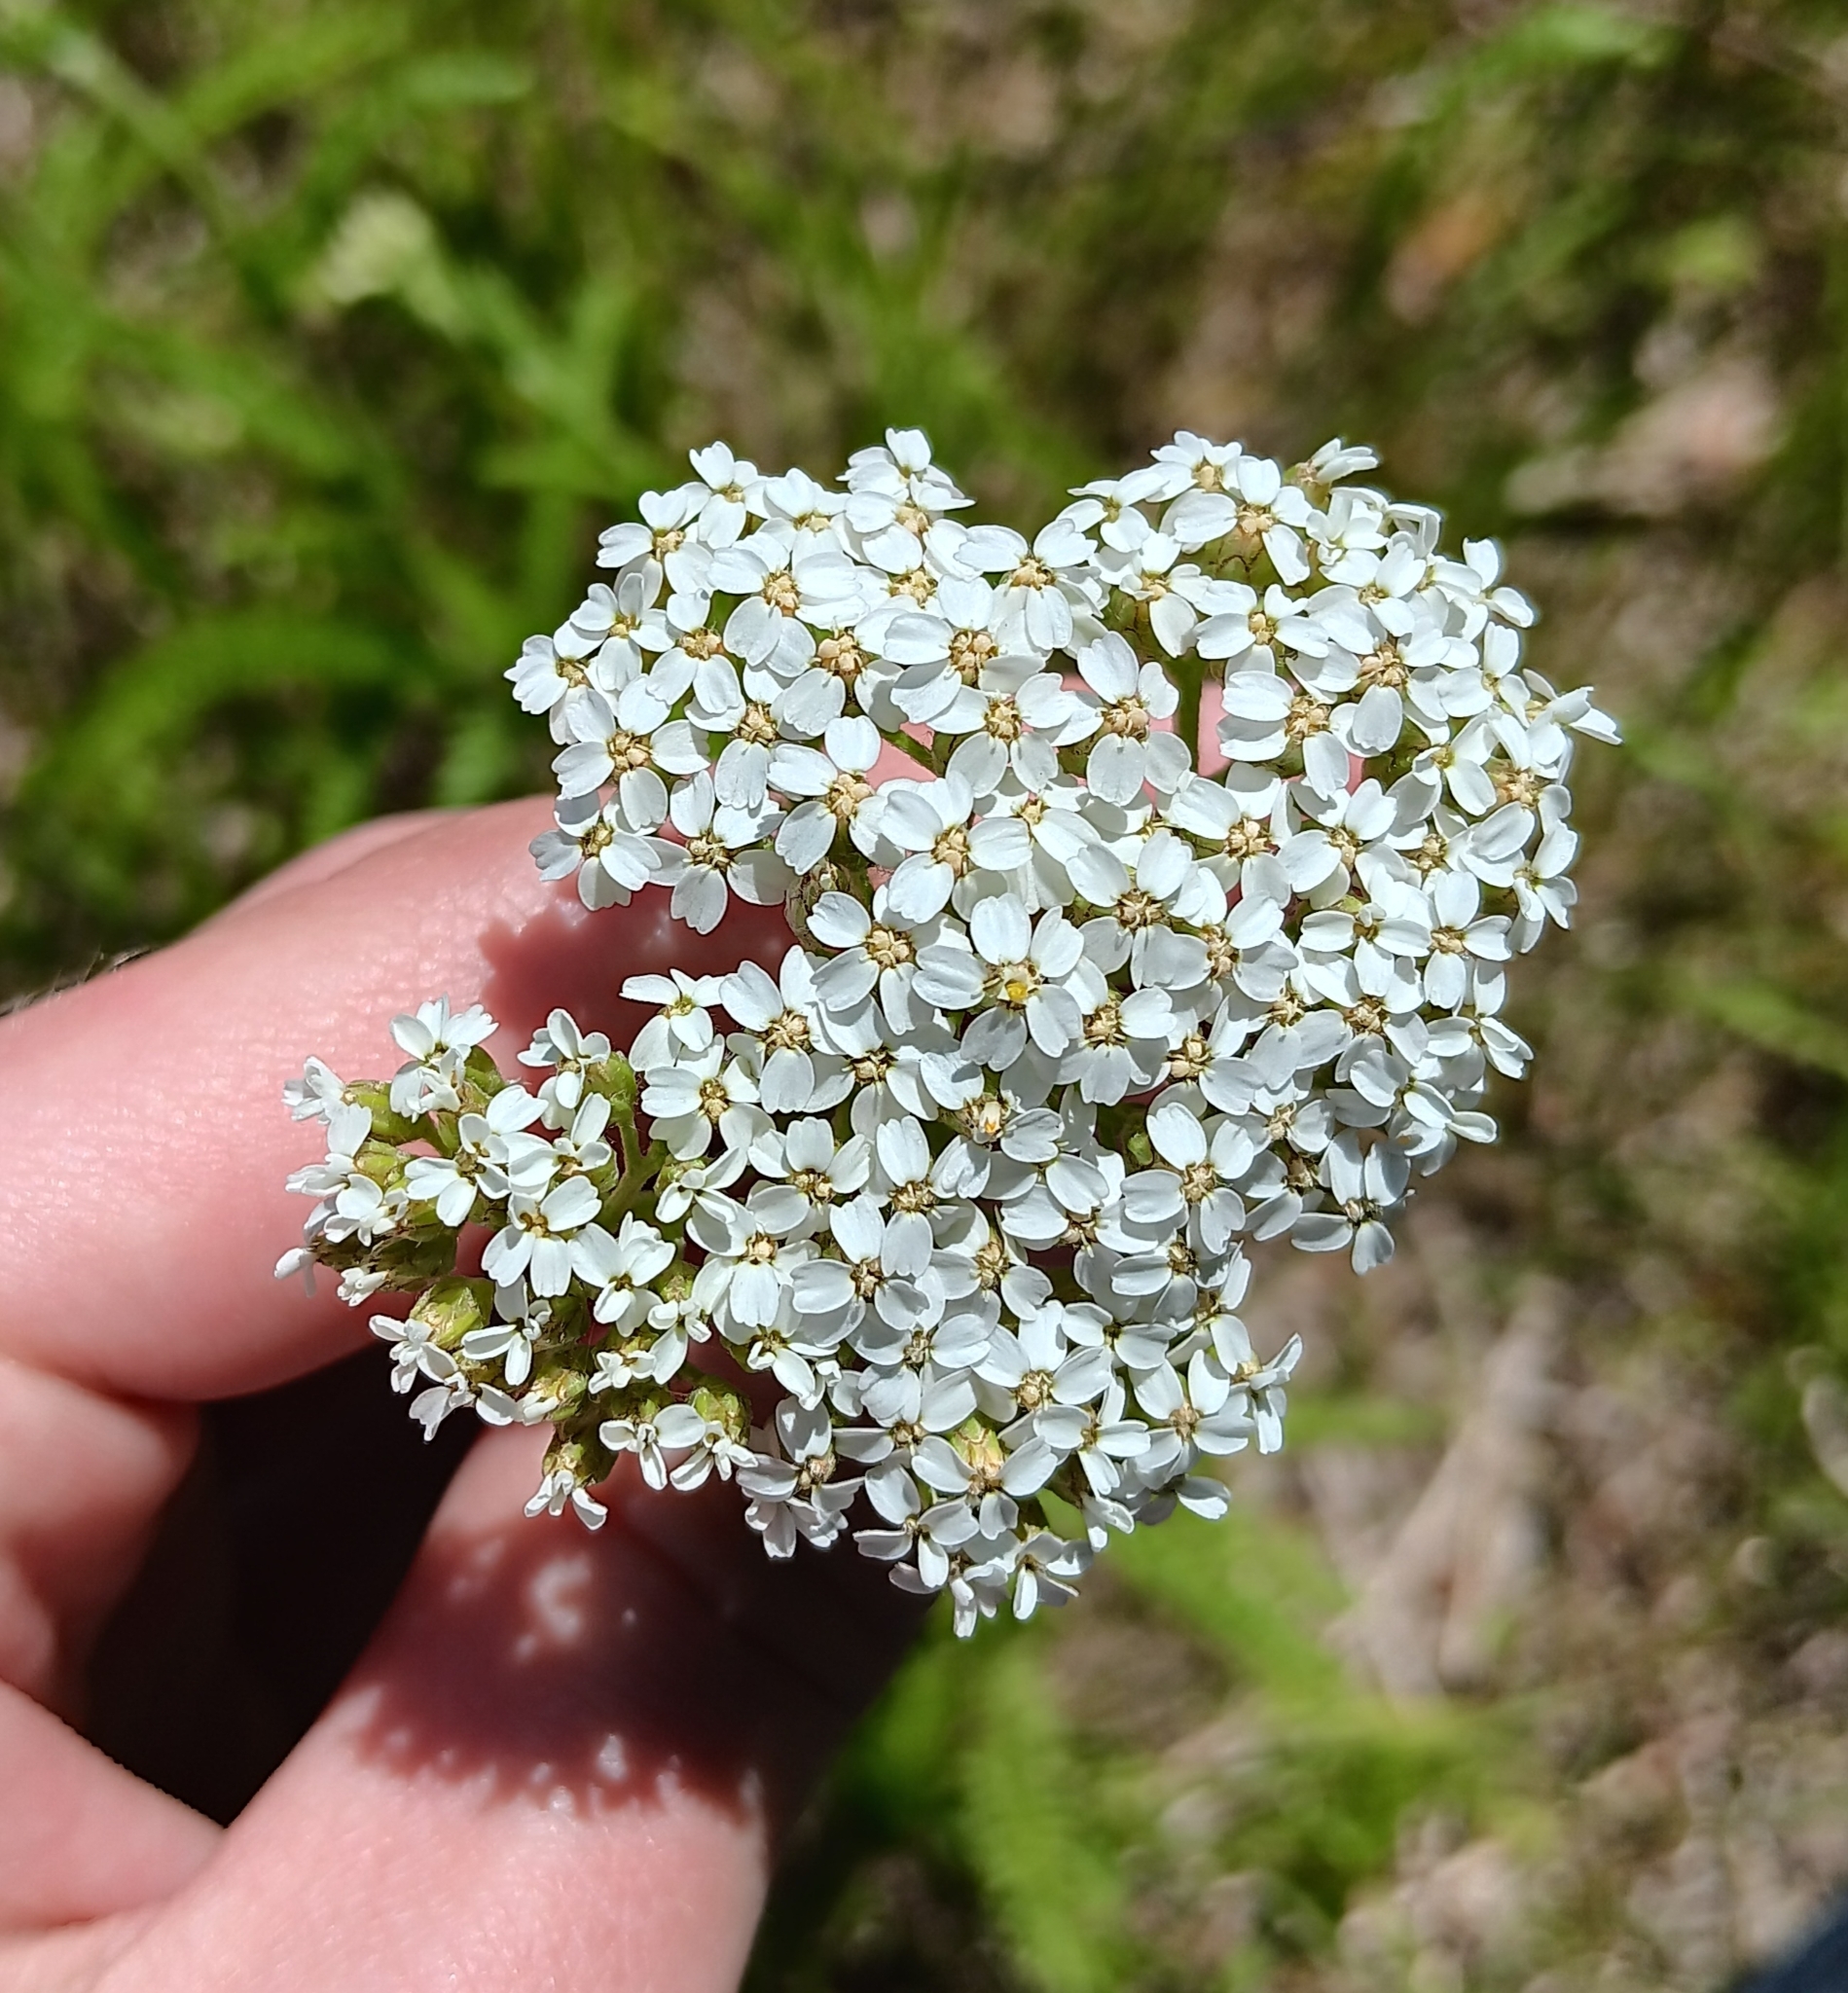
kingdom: Plantae
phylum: Tracheophyta
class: Magnoliopsida
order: Asterales
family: Asteraceae
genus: Achillea
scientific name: Achillea millefolium
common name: Yarrow
